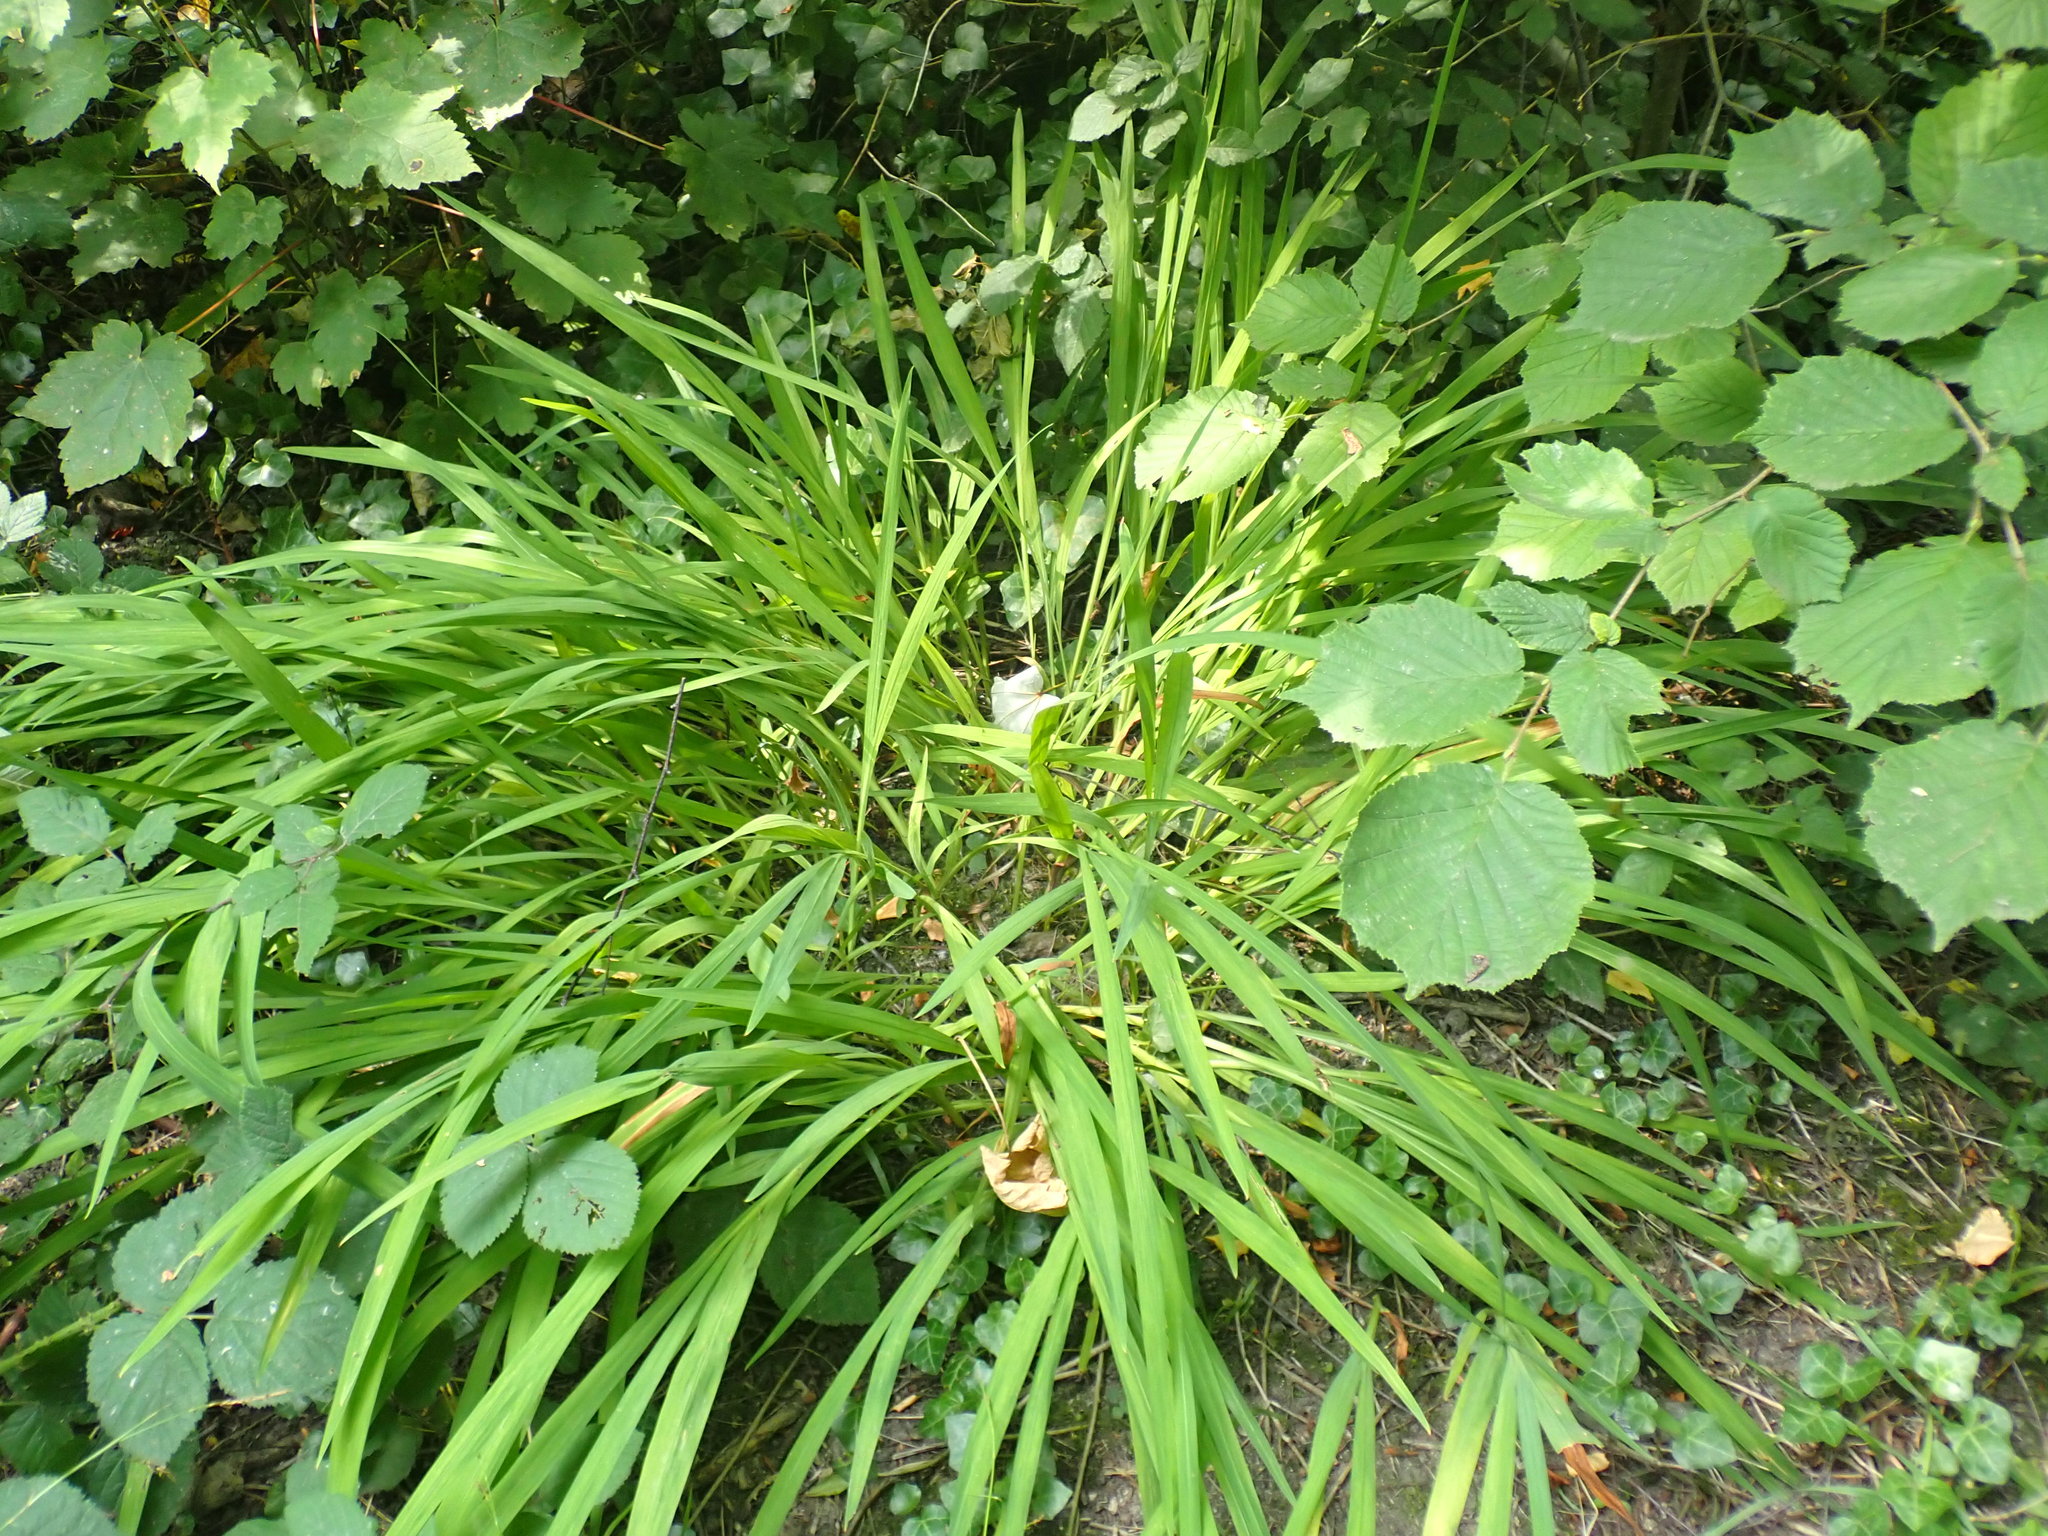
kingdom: Plantae
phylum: Tracheophyta
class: Liliopsida
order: Asparagales
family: Iridaceae
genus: Crocosmia
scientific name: Crocosmia crocosmiiflora
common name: Montbretia
